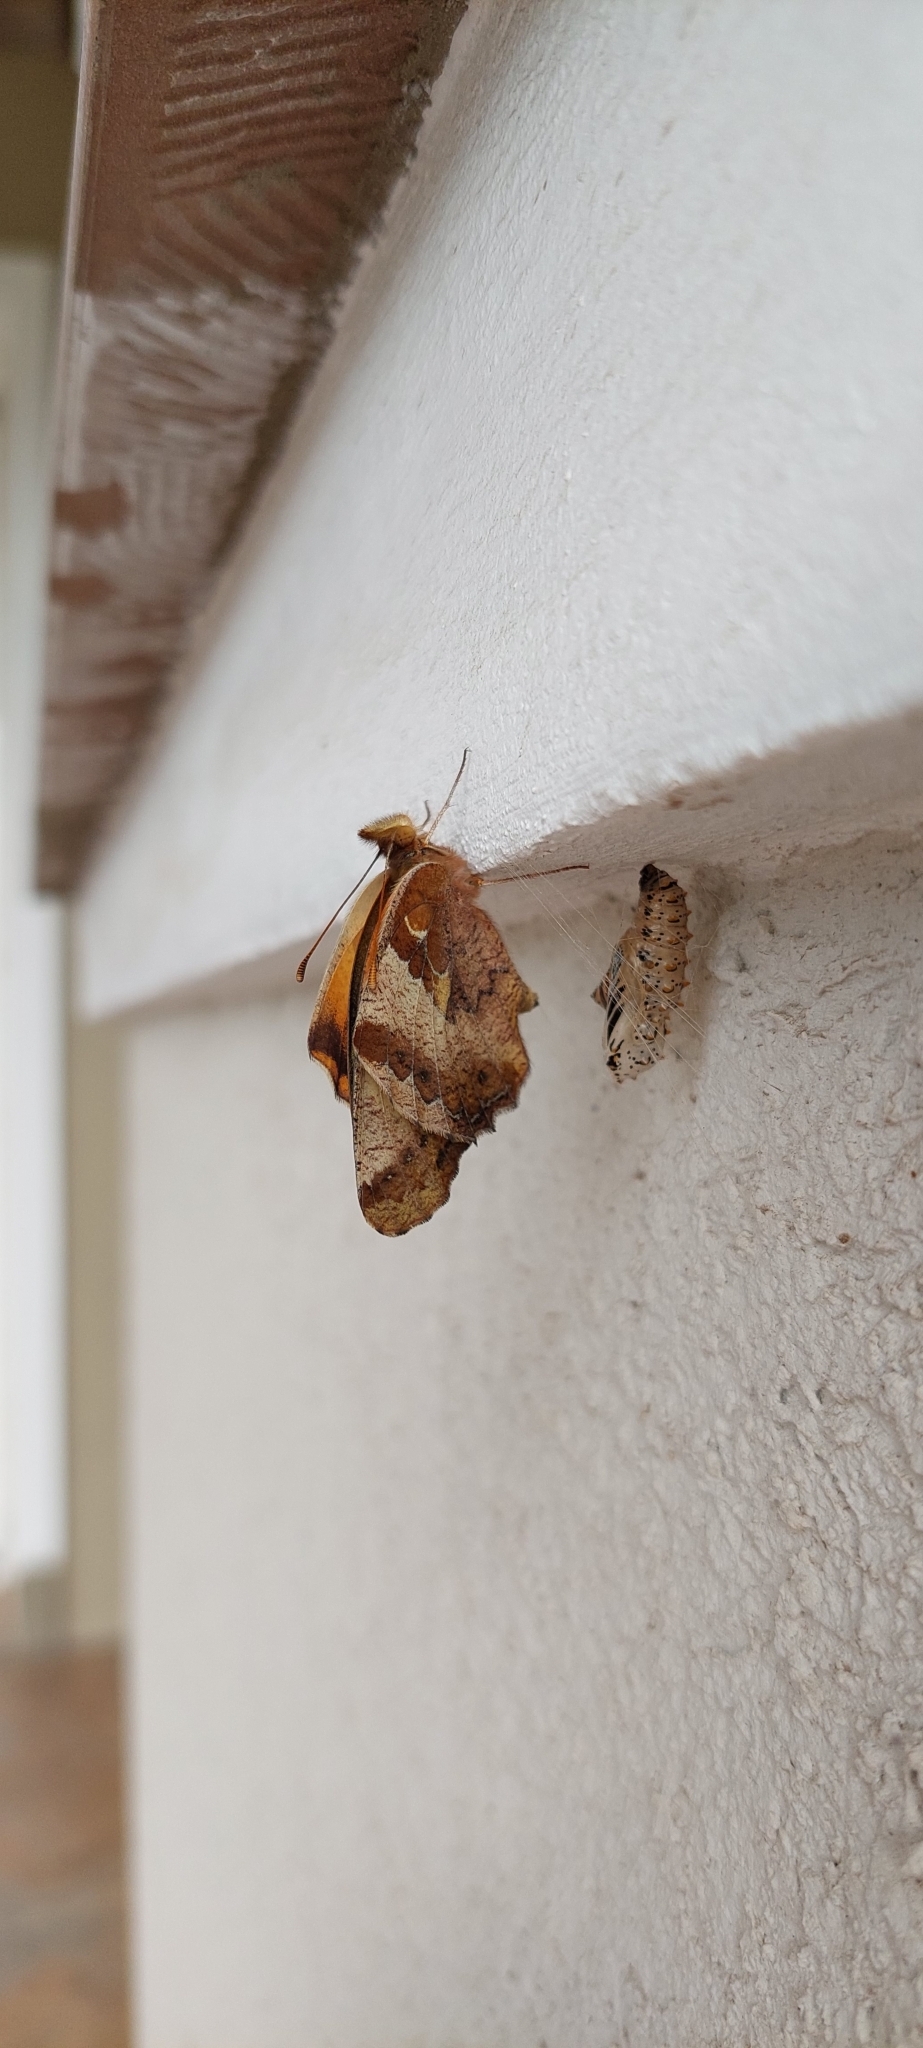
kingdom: Animalia
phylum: Arthropoda
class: Insecta
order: Lepidoptera
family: Nymphalidae
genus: Euptoieta
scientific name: Euptoieta hortensia
